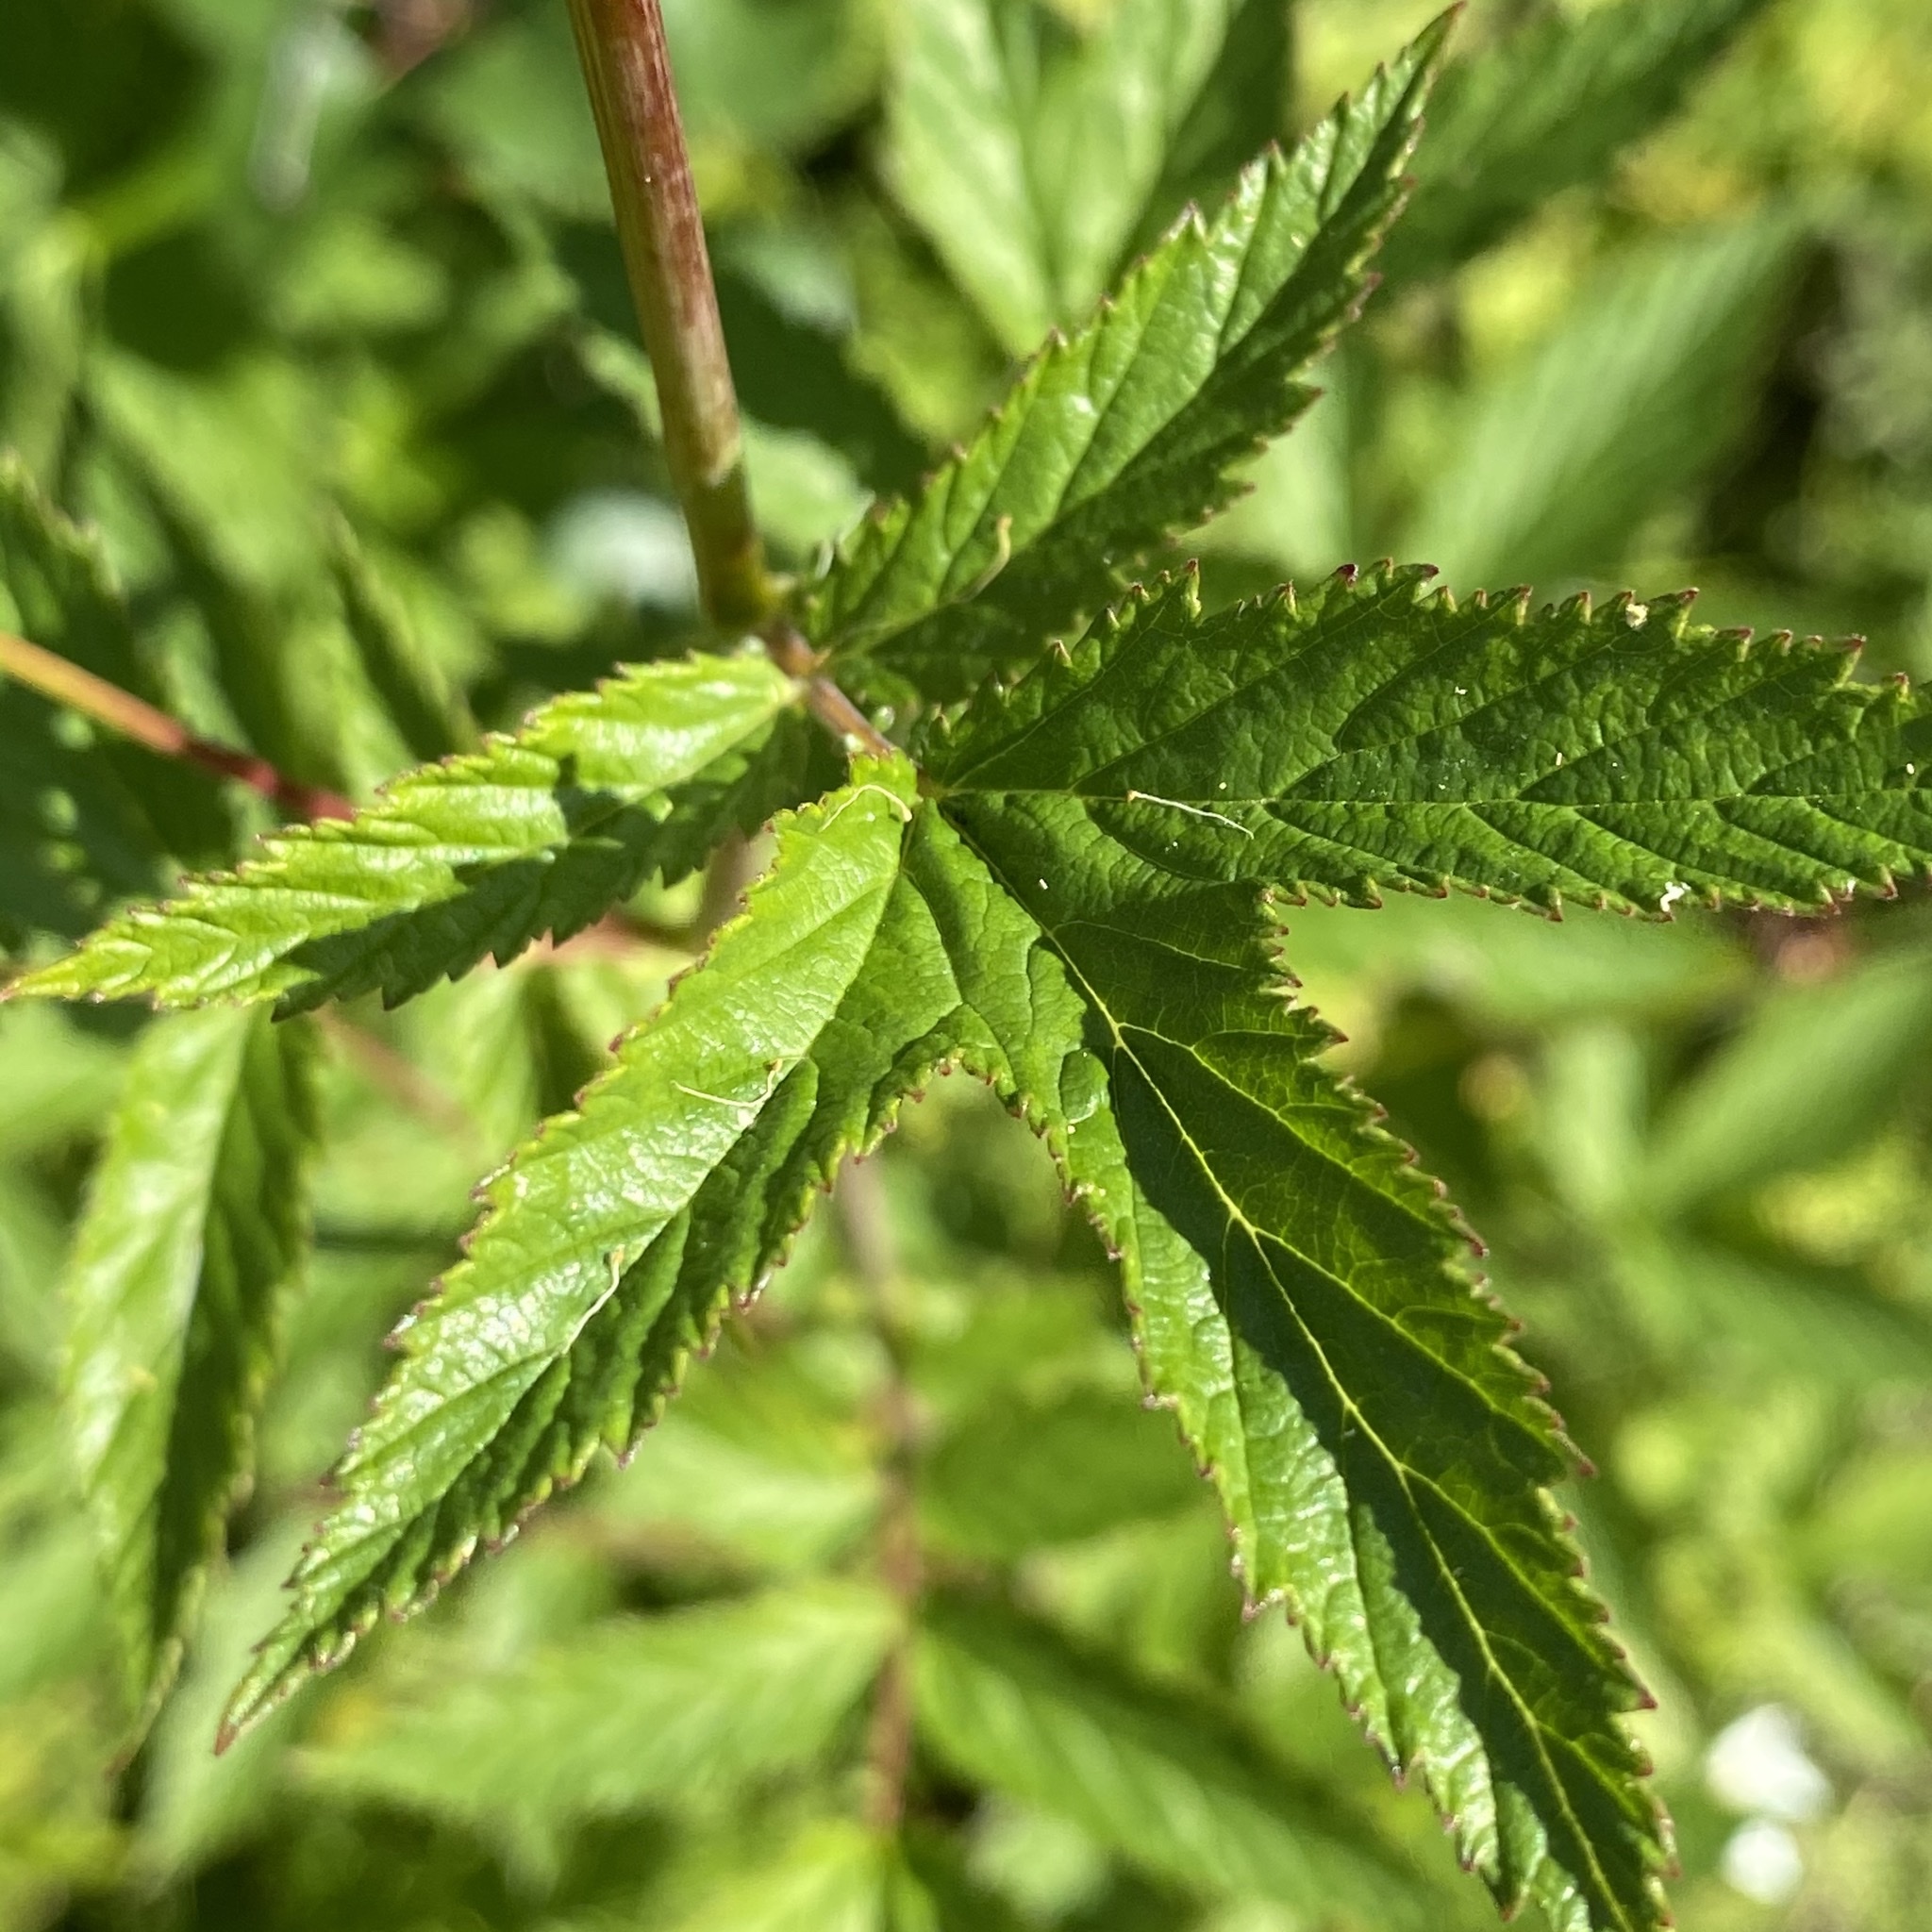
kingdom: Plantae
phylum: Tracheophyta
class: Magnoliopsida
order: Rosales
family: Rosaceae
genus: Filipendula
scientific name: Filipendula ulmaria
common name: Meadowsweet
